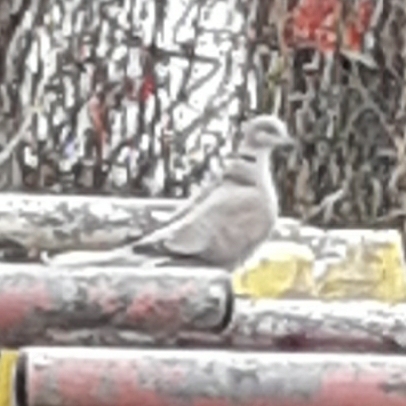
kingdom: Animalia
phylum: Chordata
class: Aves
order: Columbiformes
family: Columbidae
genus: Streptopelia
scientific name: Streptopelia decaocto
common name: Eurasian collared dove
